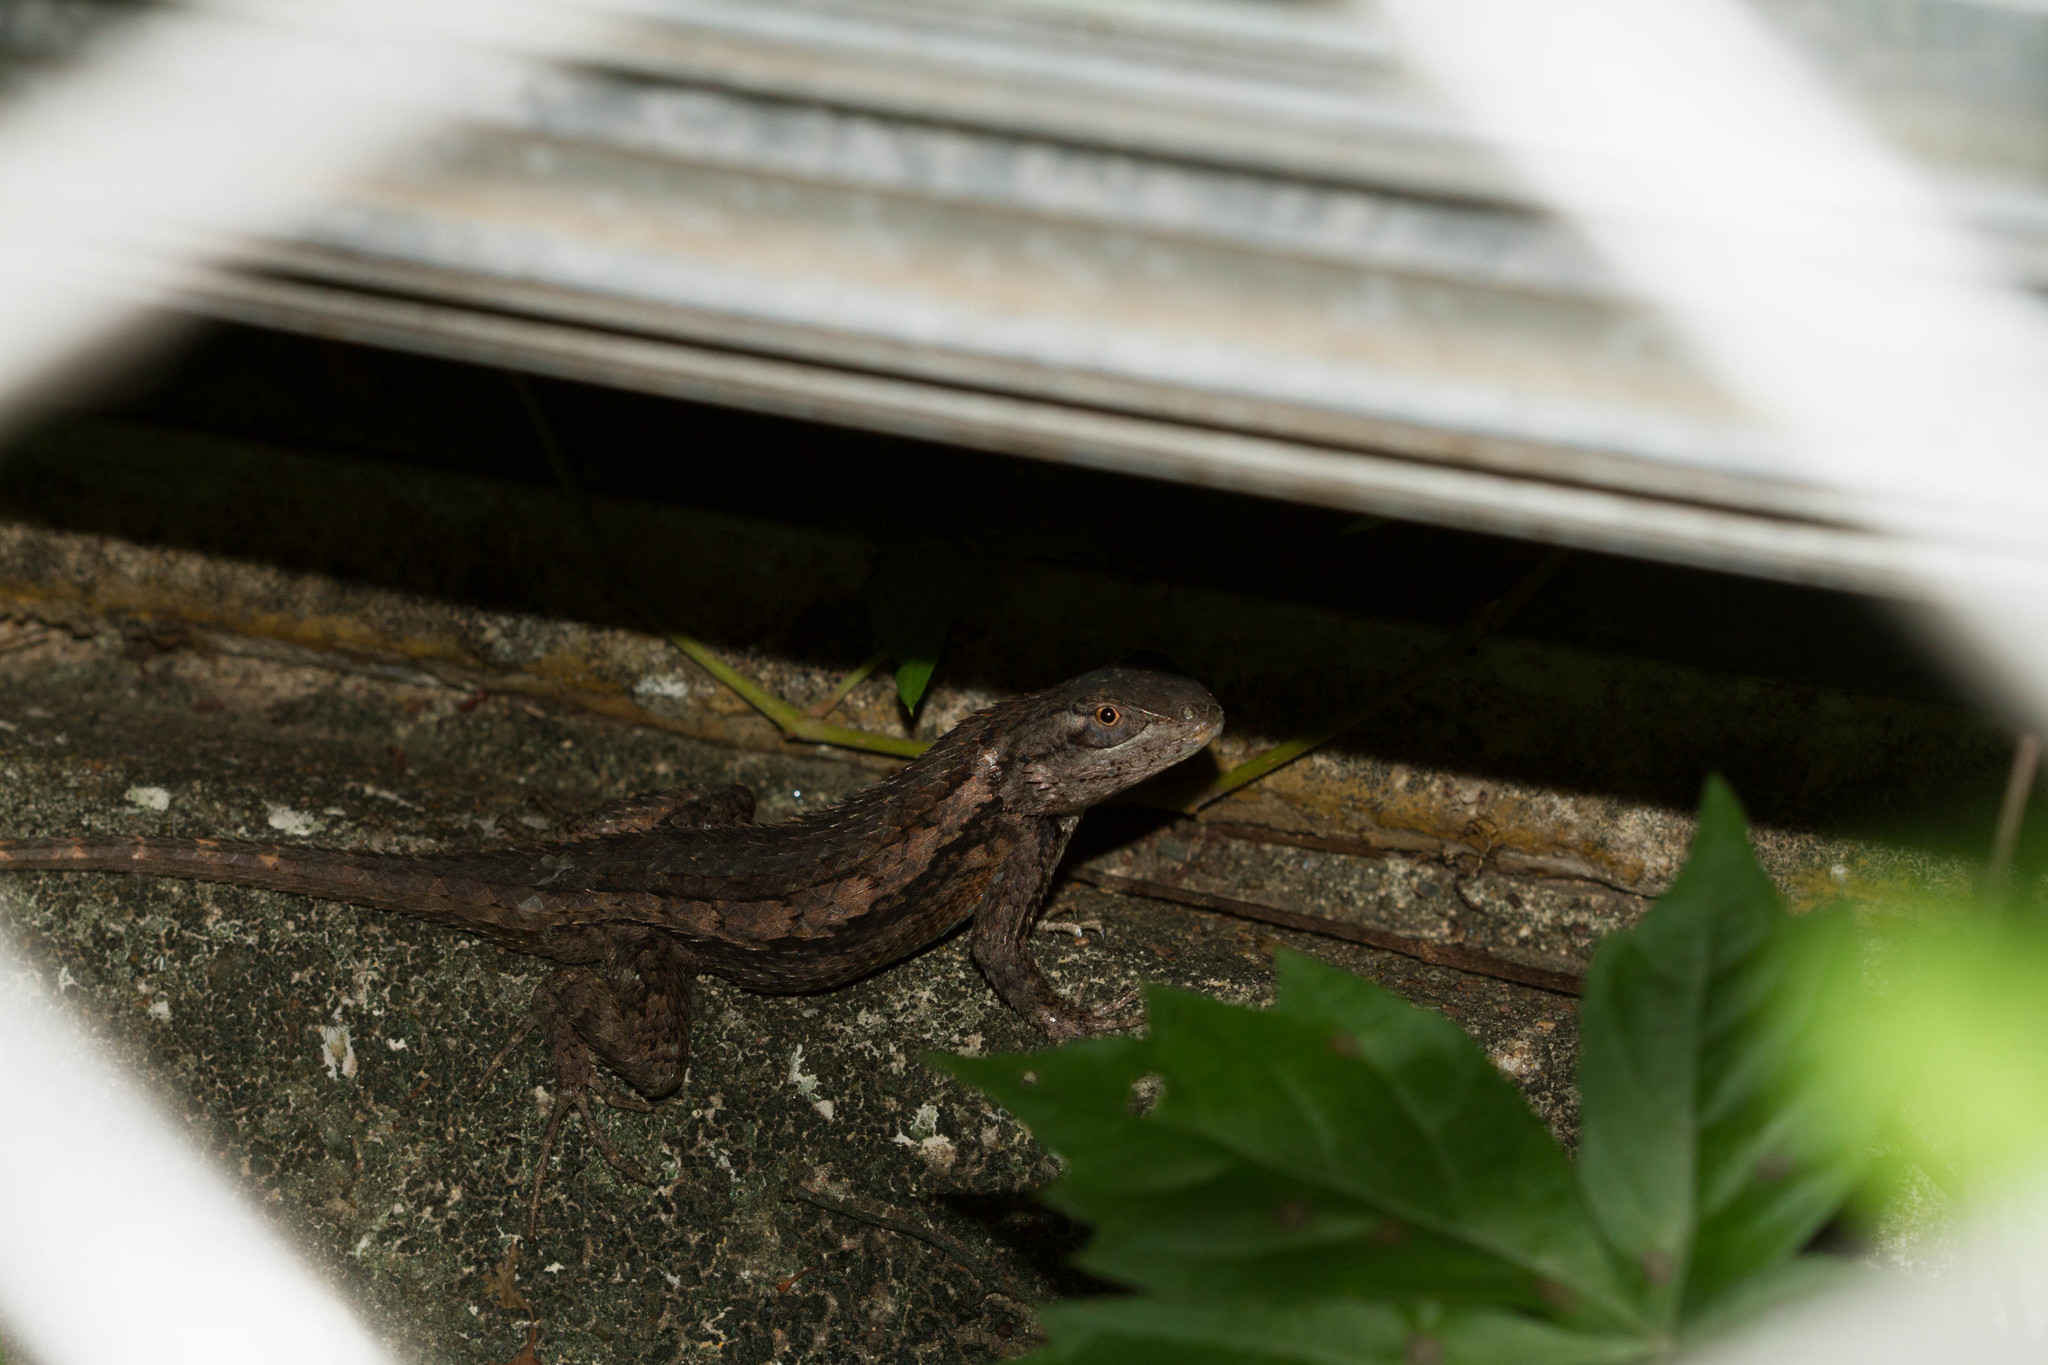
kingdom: Animalia
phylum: Chordata
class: Squamata
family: Phrynosomatidae
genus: Sceloporus
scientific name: Sceloporus olivaceus
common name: Texas spiny lizard
